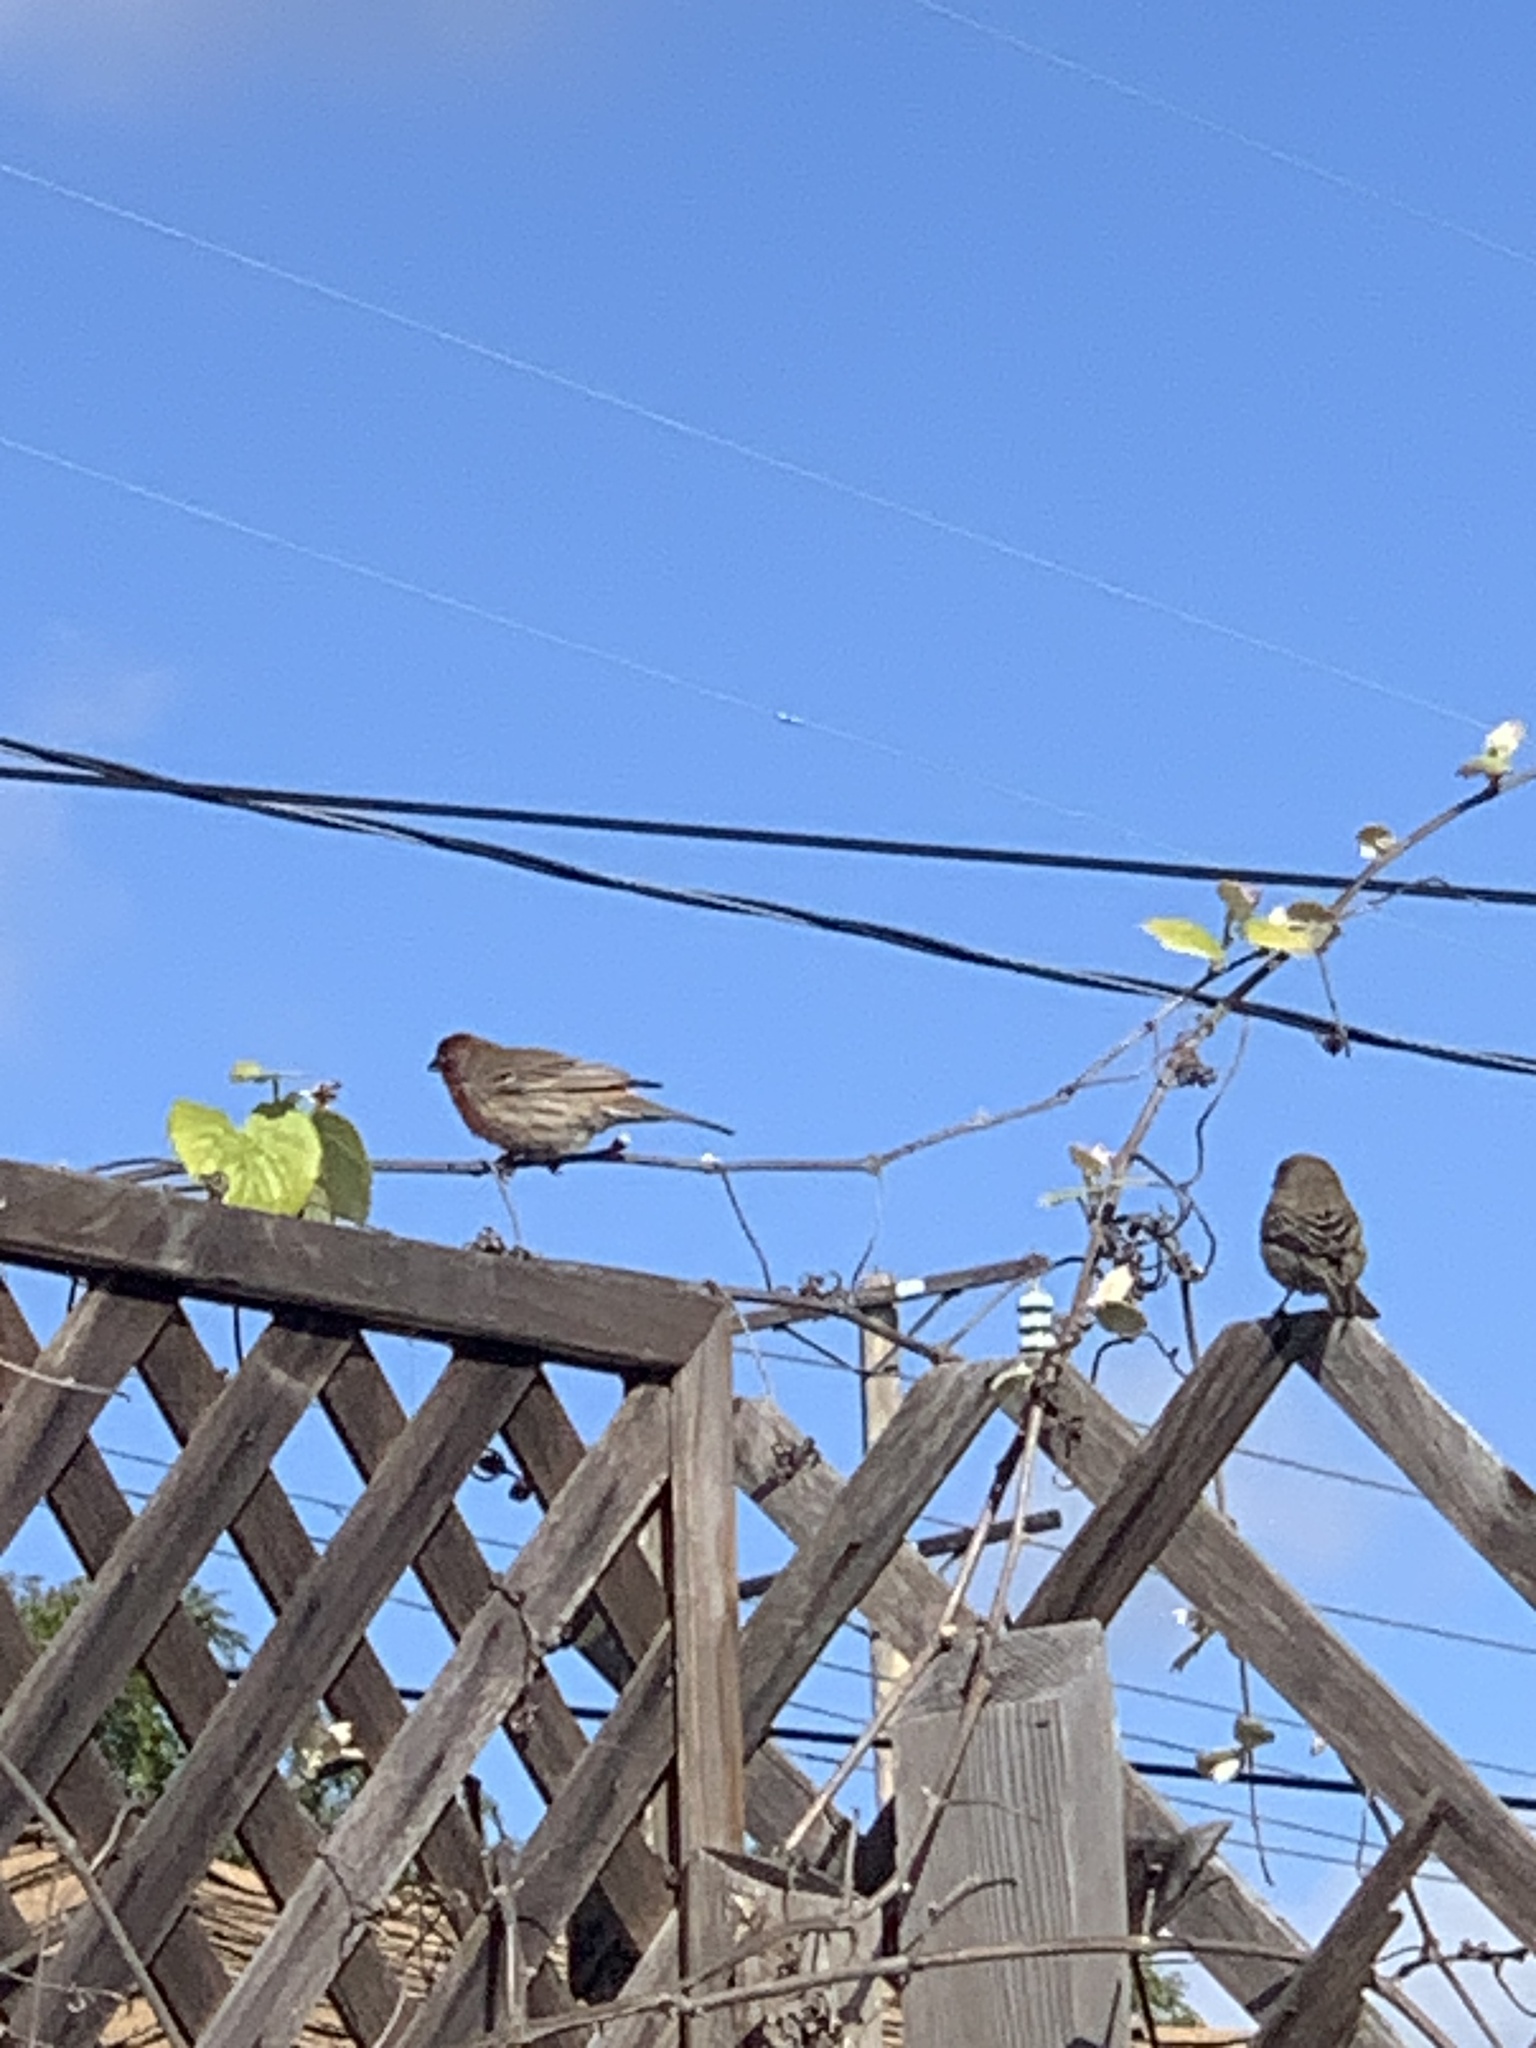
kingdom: Animalia
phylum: Chordata
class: Aves
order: Passeriformes
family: Fringillidae
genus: Haemorhous
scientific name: Haemorhous mexicanus
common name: House finch
